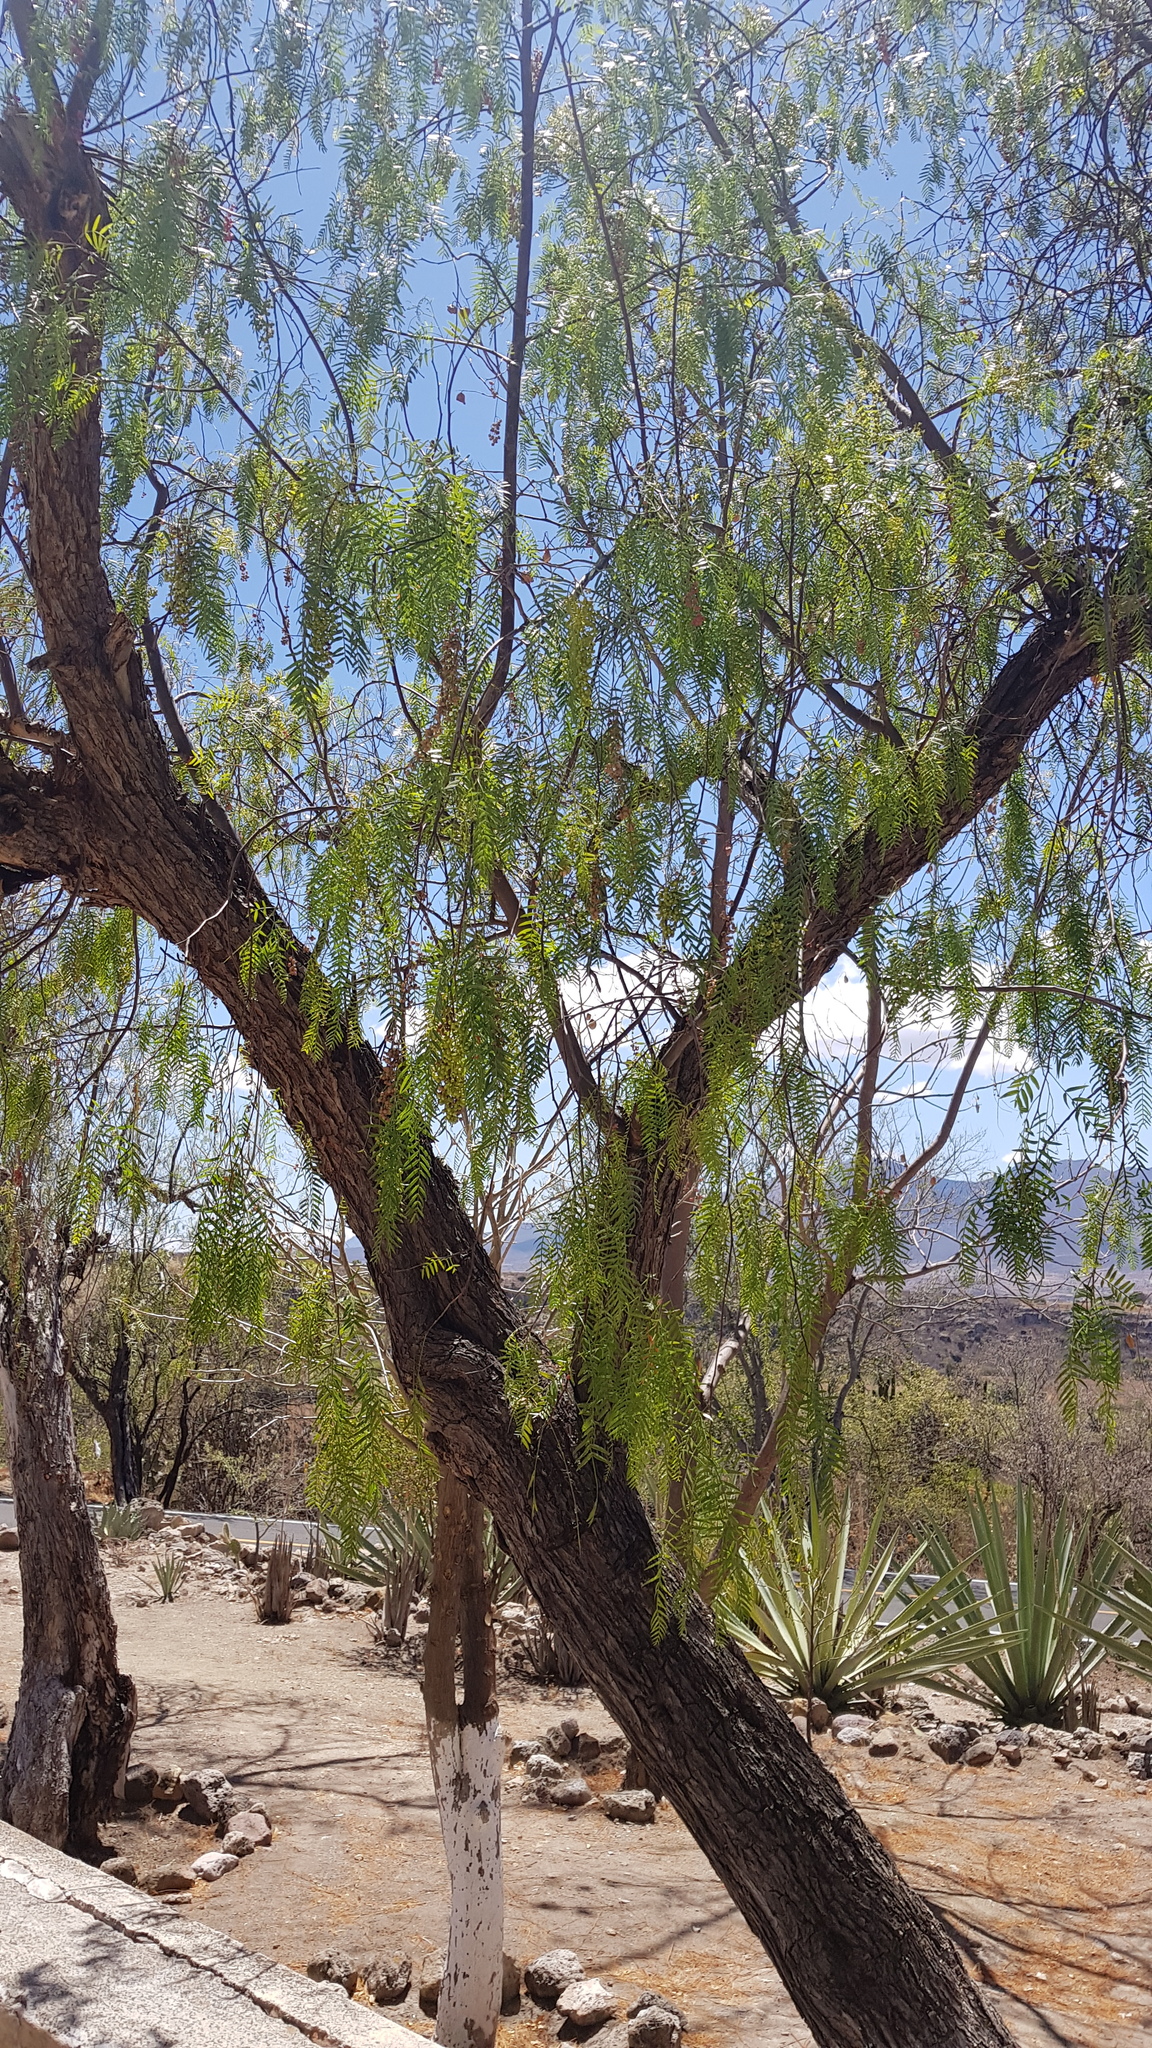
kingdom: Plantae
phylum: Tracheophyta
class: Magnoliopsida
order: Sapindales
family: Anacardiaceae
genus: Schinus
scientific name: Schinus molle
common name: Peruvian peppertree
